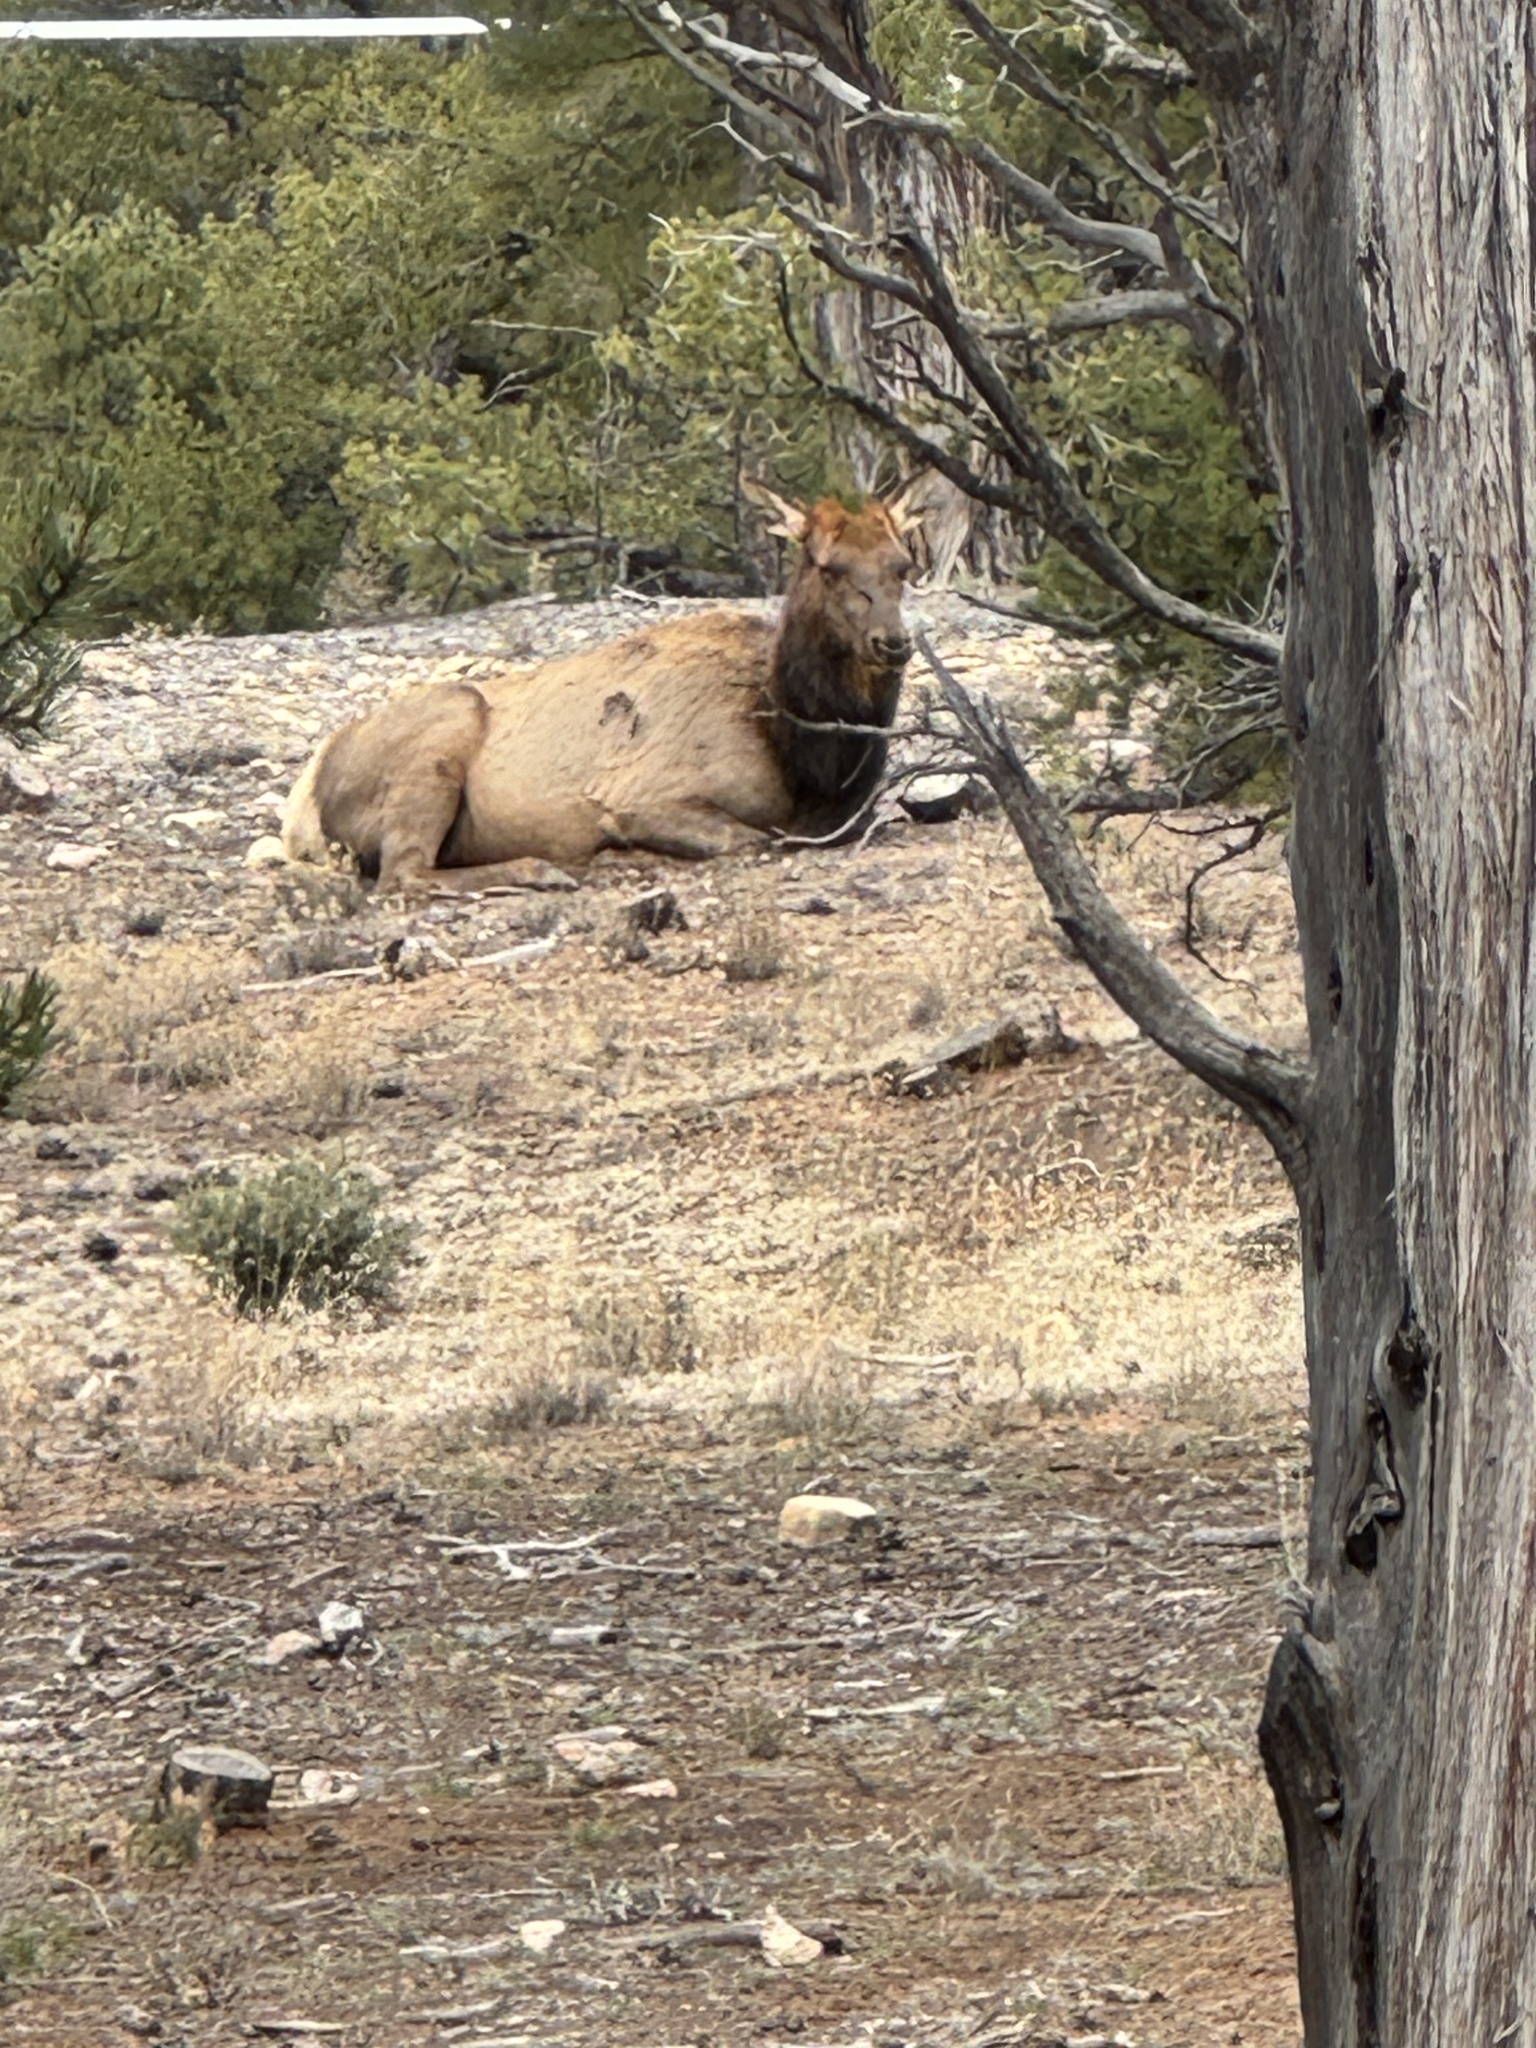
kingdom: Animalia
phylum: Chordata
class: Mammalia
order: Artiodactyla
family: Cervidae
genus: Cervus
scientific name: Cervus elaphus
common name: Red deer
